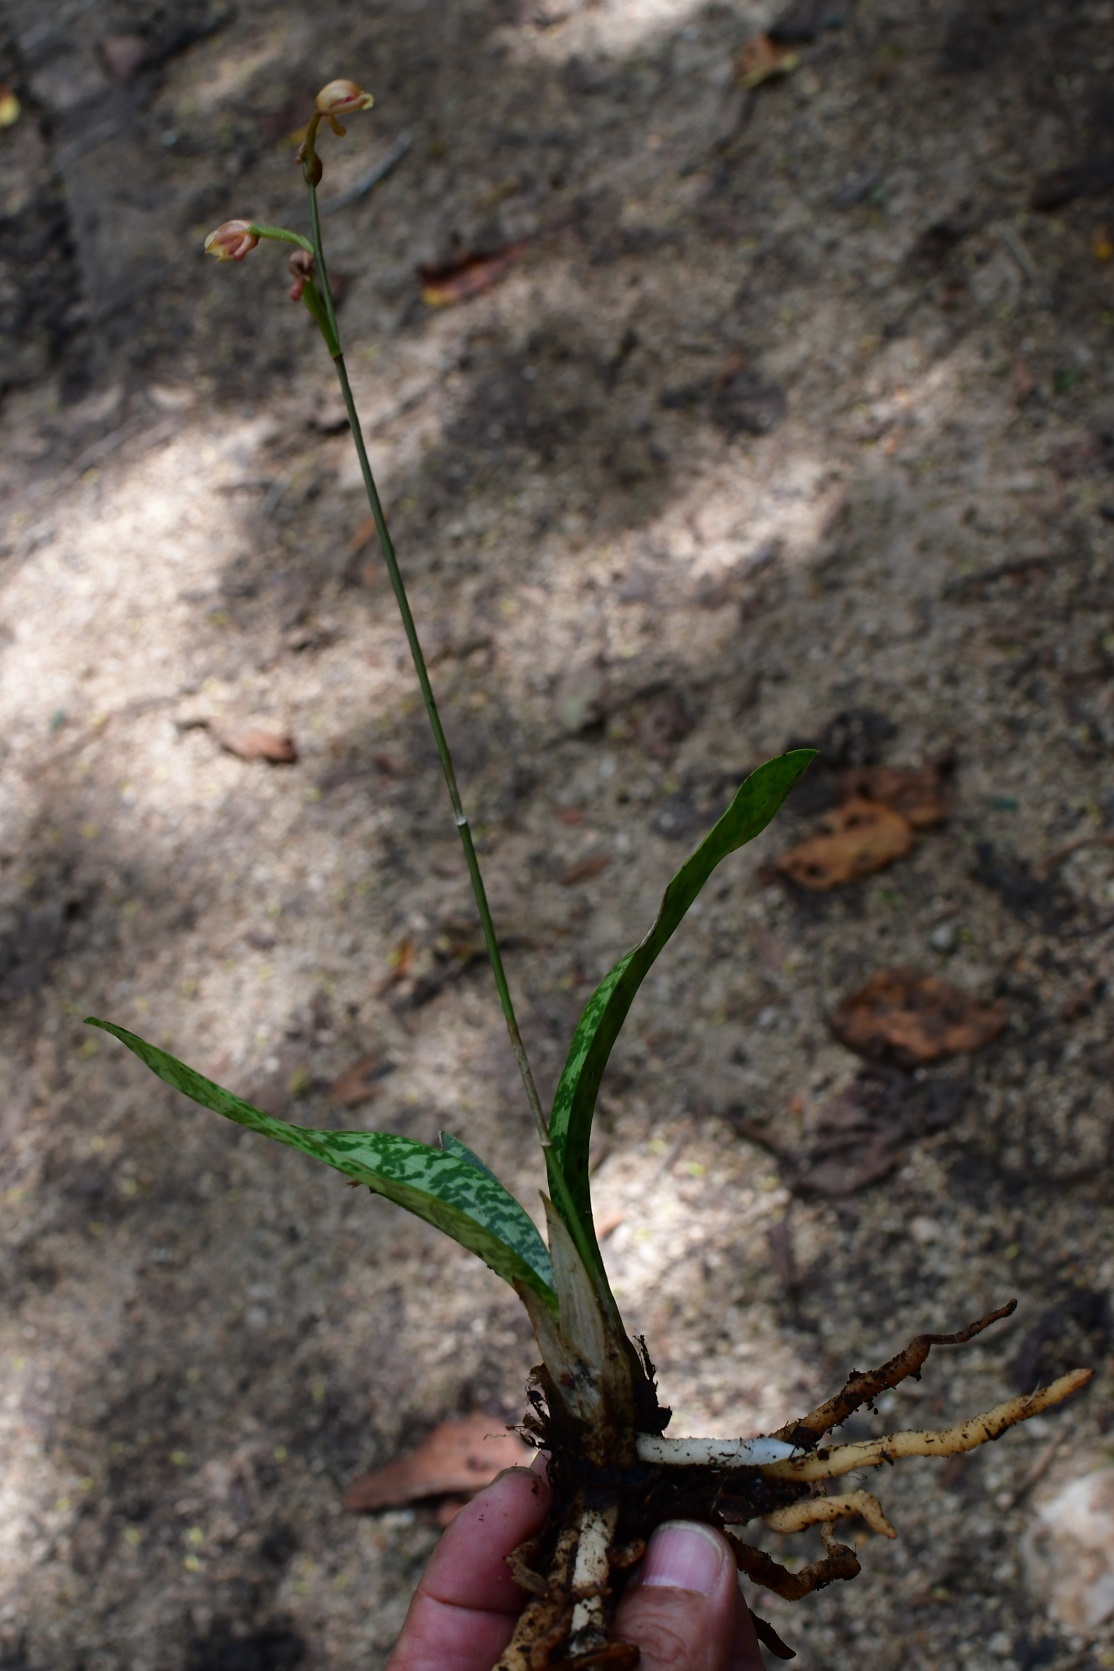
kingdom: Plantae
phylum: Tracheophyta
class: Liliopsida
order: Asparagales
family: Orchidaceae
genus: Eulophia
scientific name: Eulophia maculata
